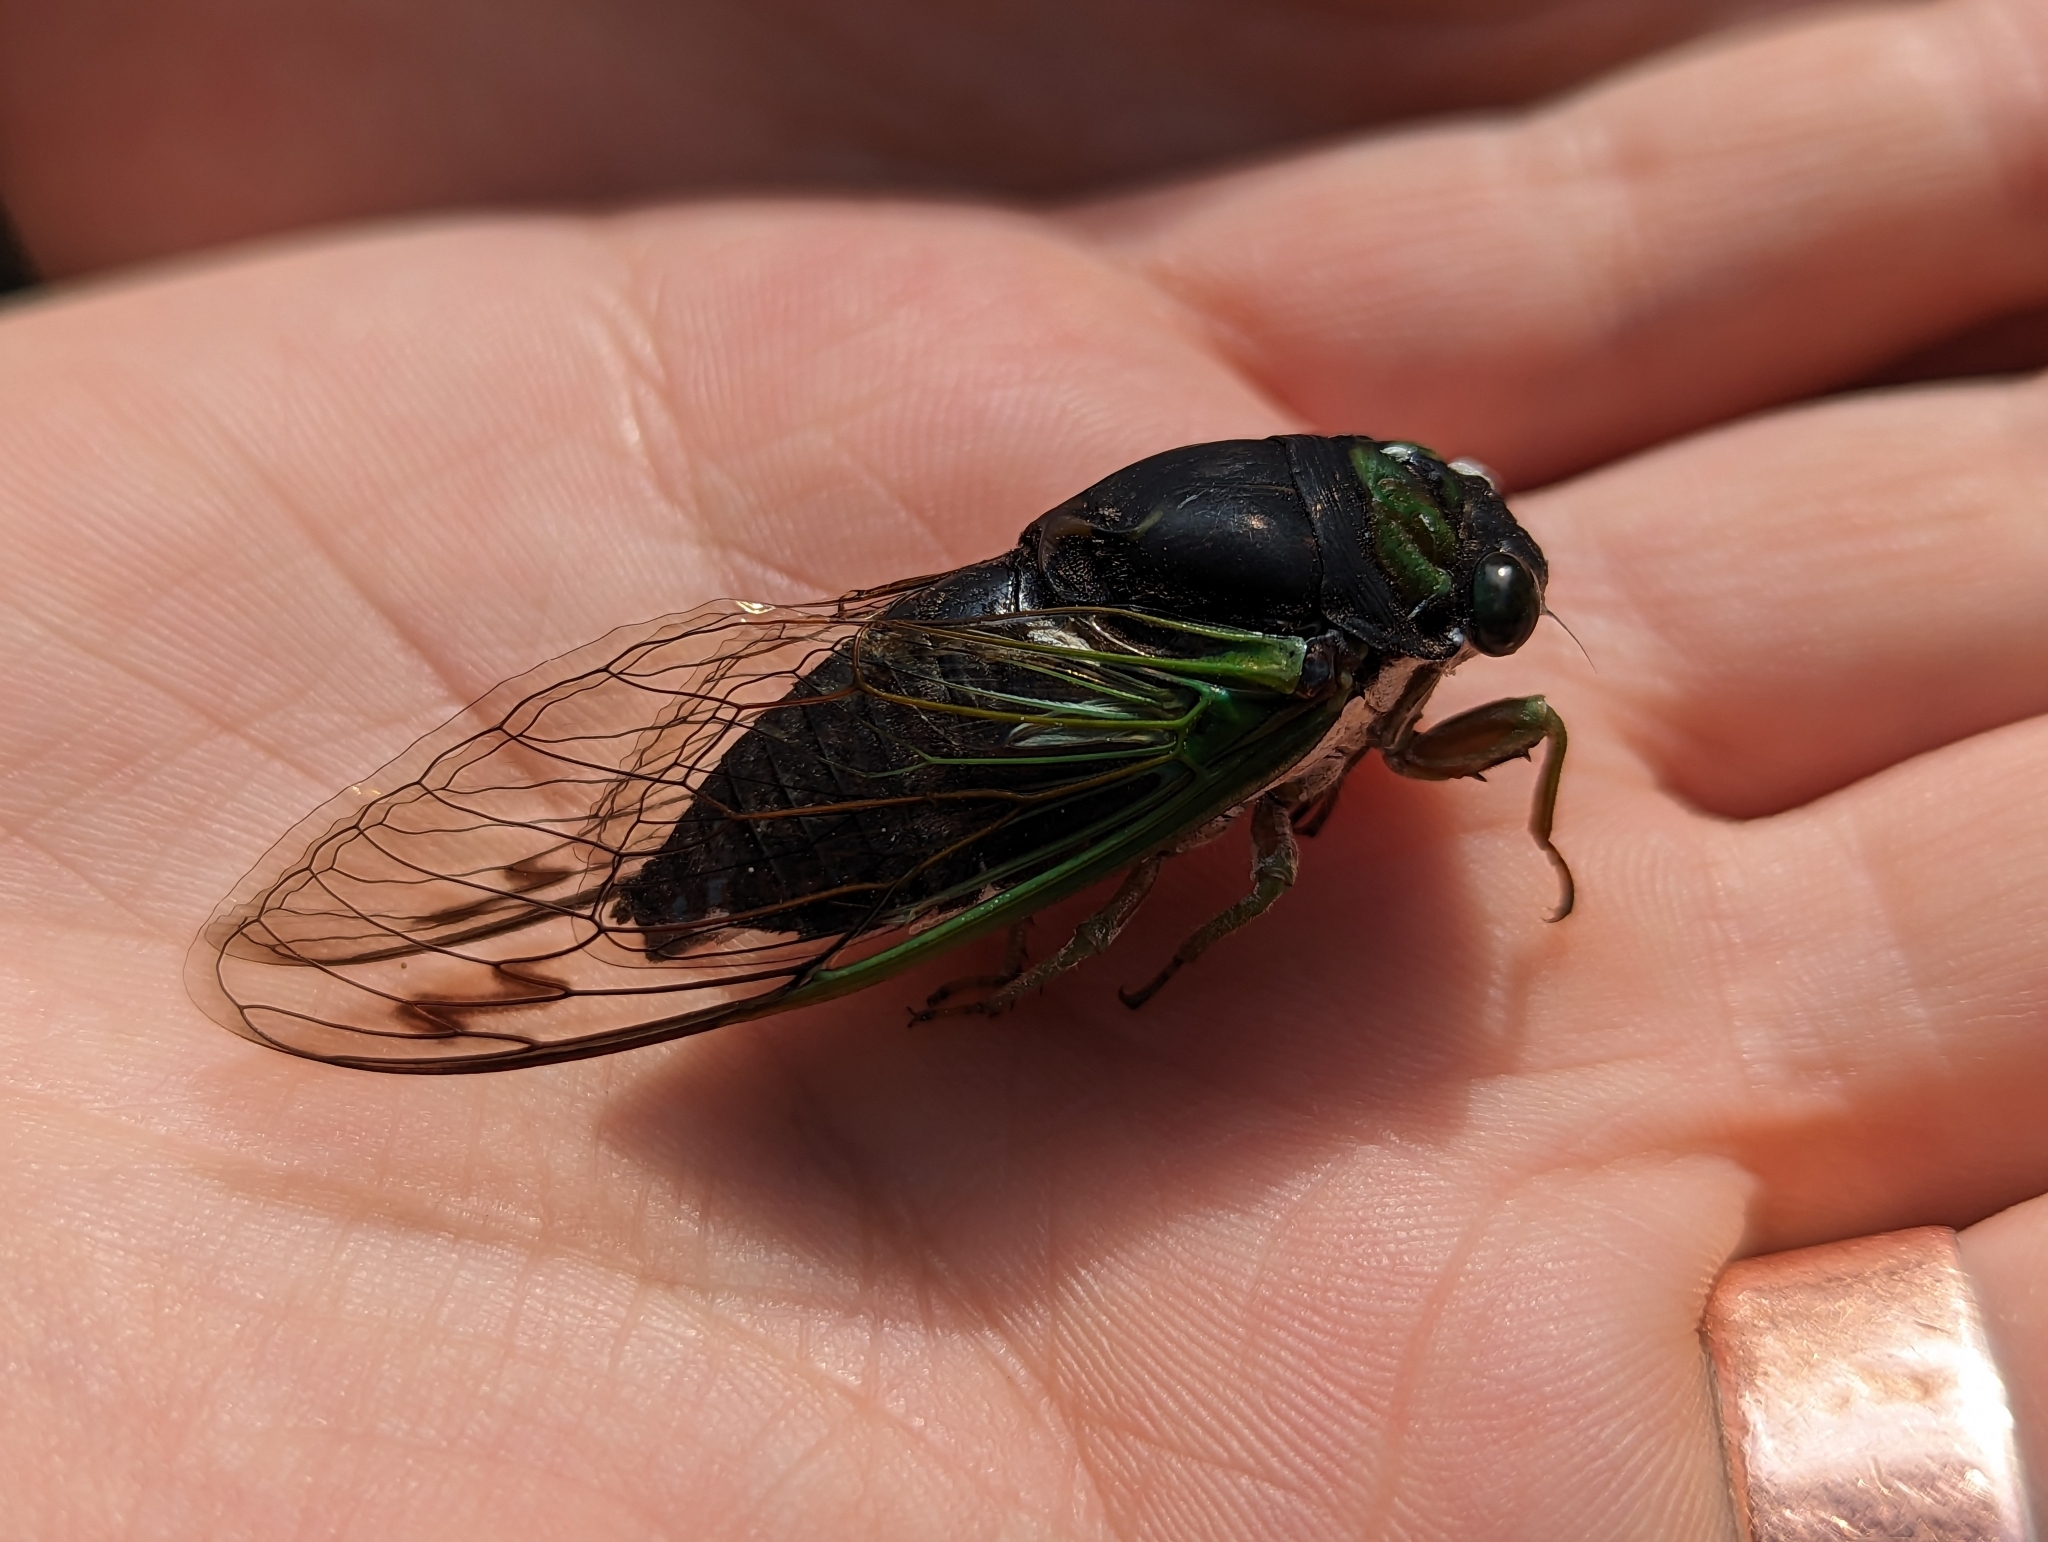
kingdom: Animalia
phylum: Arthropoda
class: Insecta
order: Hemiptera
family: Cicadidae
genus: Neotibicen
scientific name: Neotibicen tibicen
